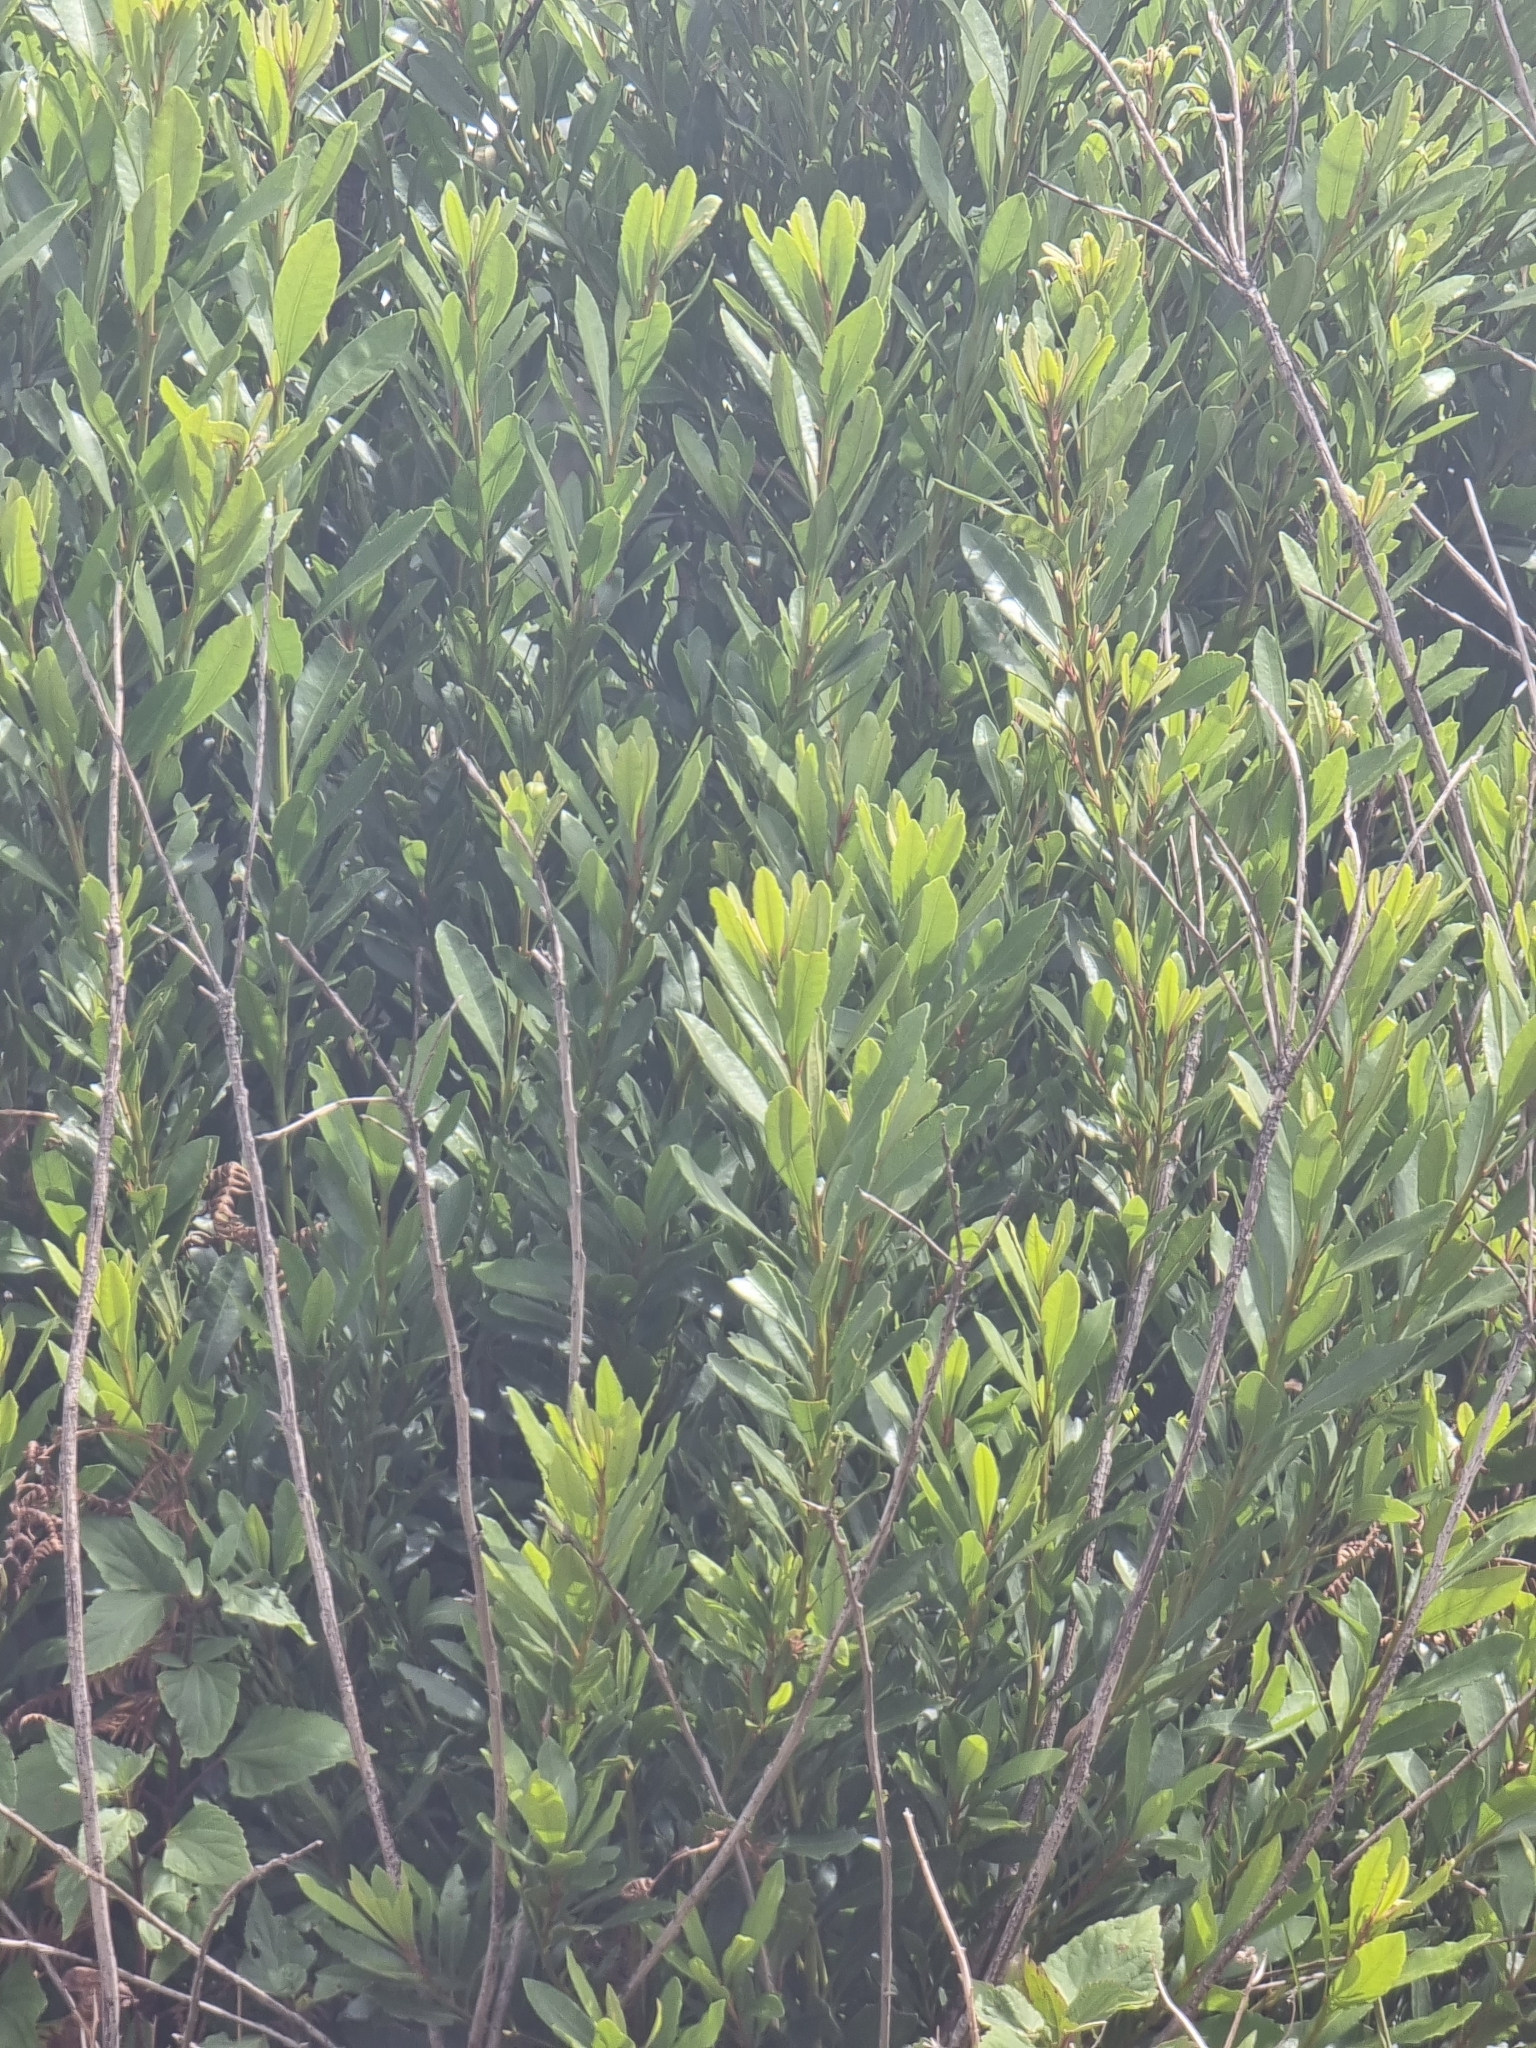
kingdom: Plantae
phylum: Tracheophyta
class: Magnoliopsida
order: Fagales
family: Myricaceae
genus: Morella
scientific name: Morella faya
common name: Firetree
